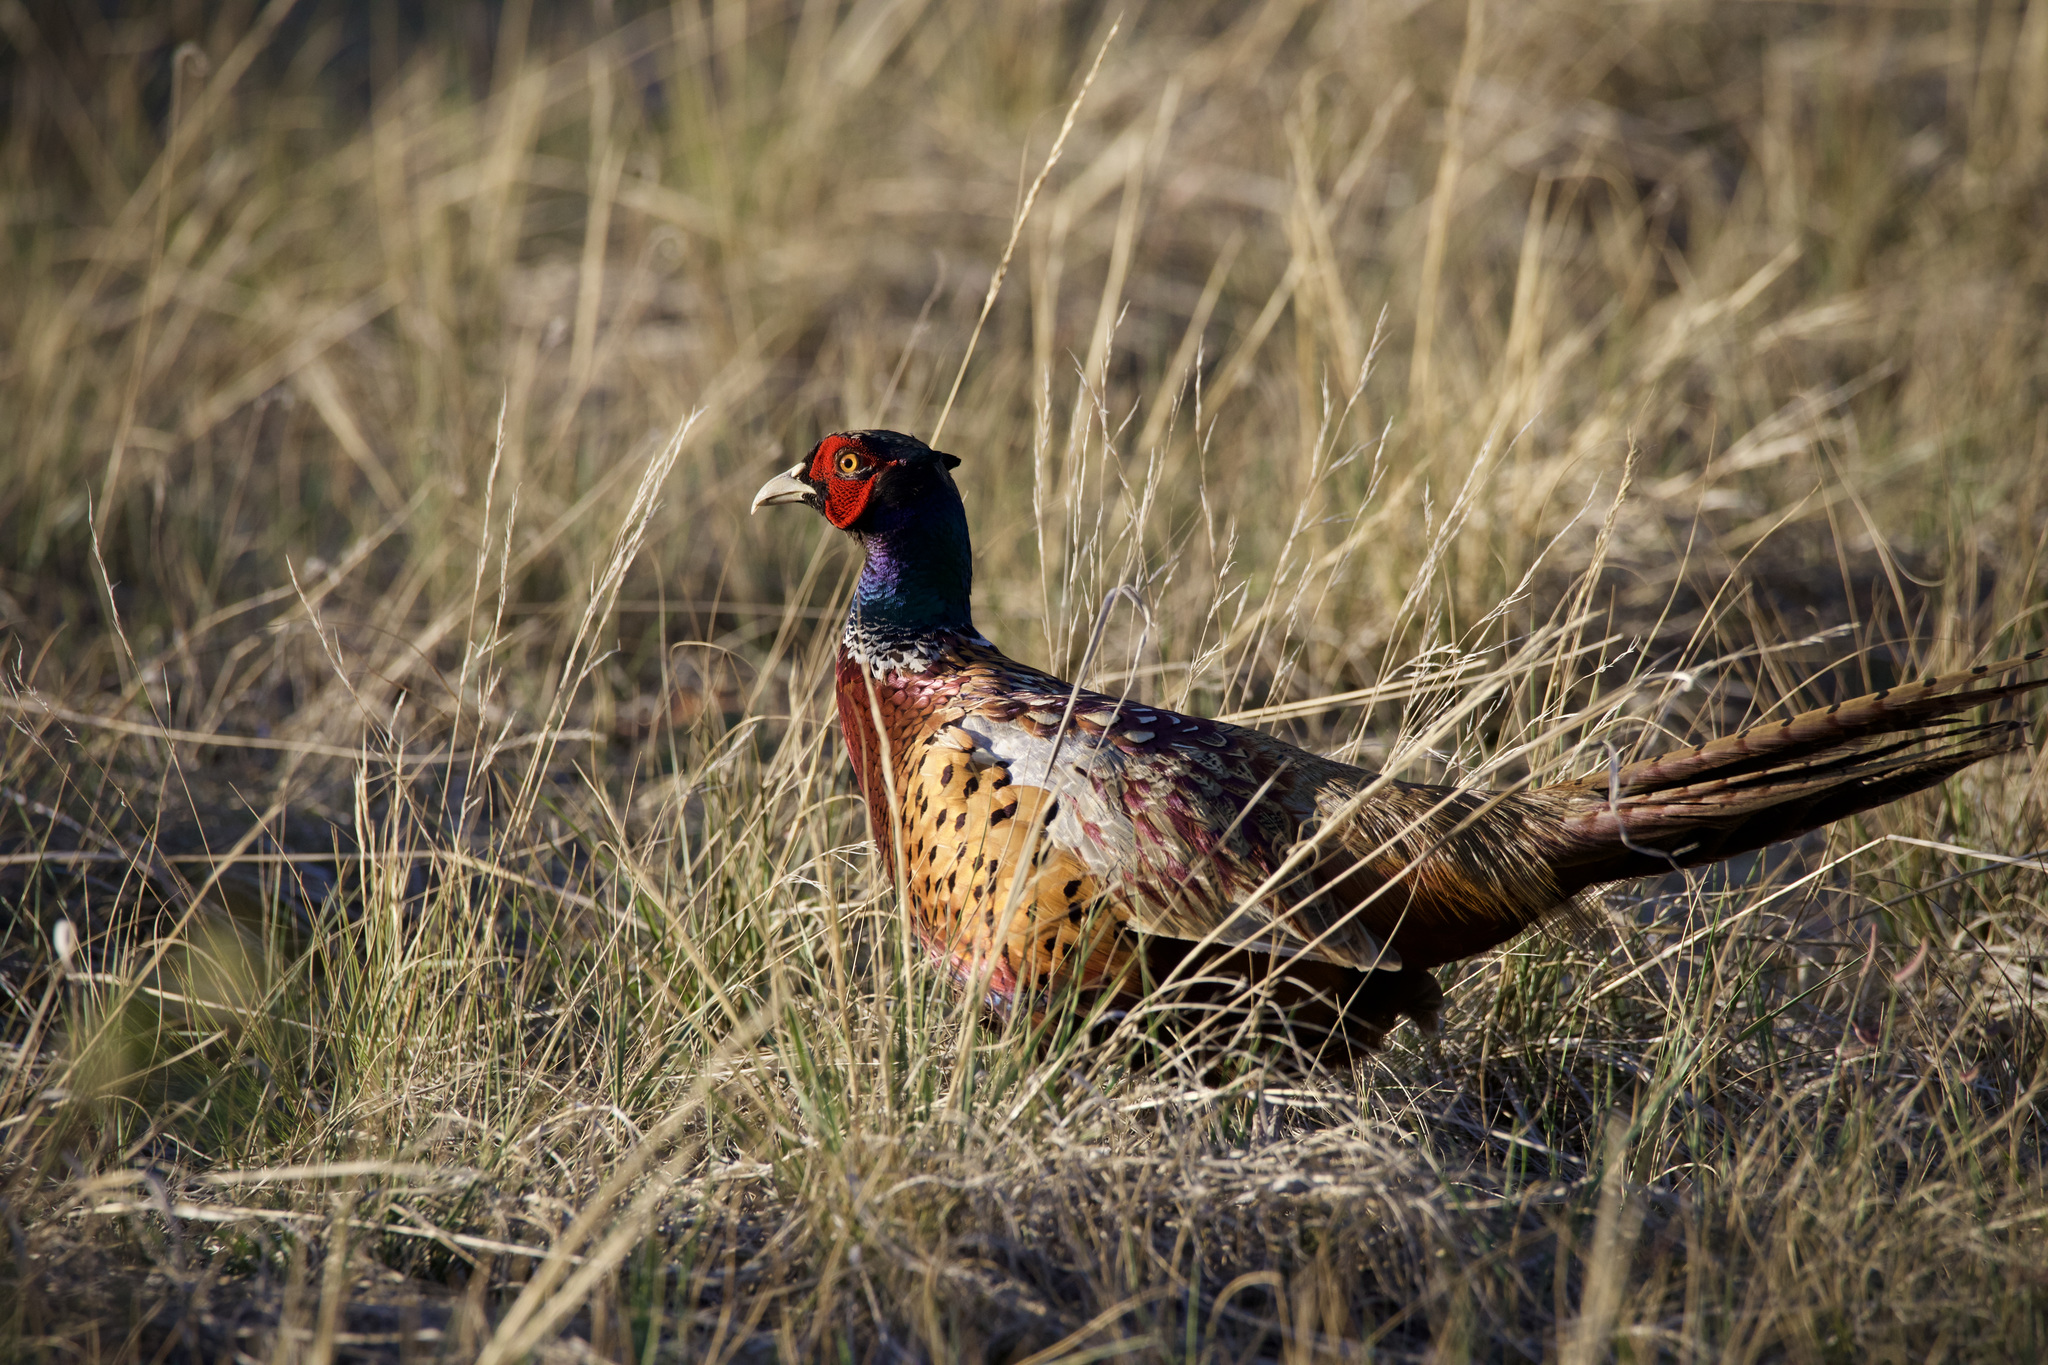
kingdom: Animalia
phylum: Chordata
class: Aves
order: Galliformes
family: Phasianidae
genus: Phasianus
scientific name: Phasianus colchicus
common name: Common pheasant
